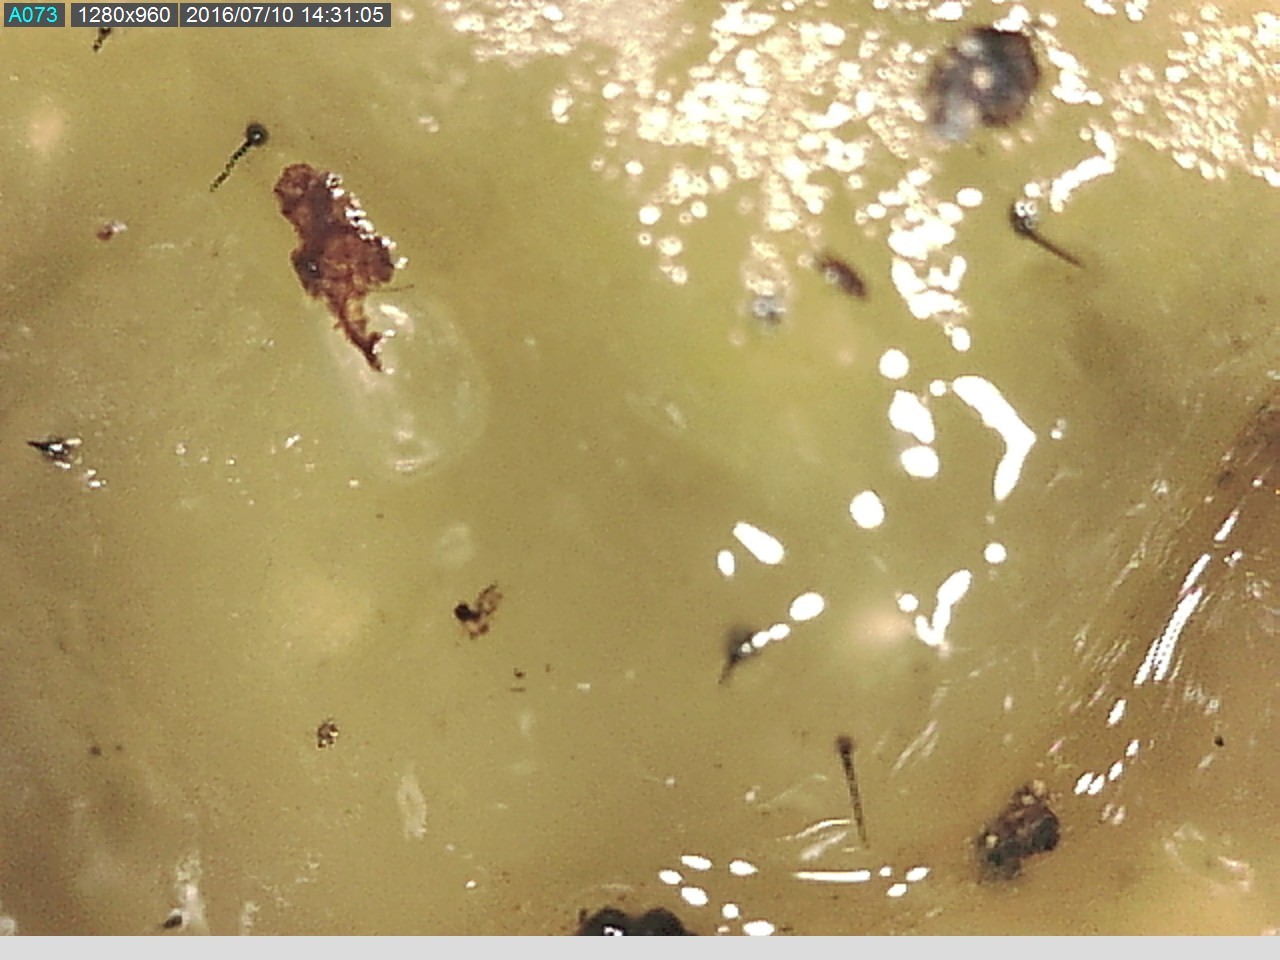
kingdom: Fungi
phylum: Ascomycota
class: Sordariomycetes
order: Ophiostomatales
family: Ophiostomataceae
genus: Sporothrix
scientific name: Sporothrix epigloea
